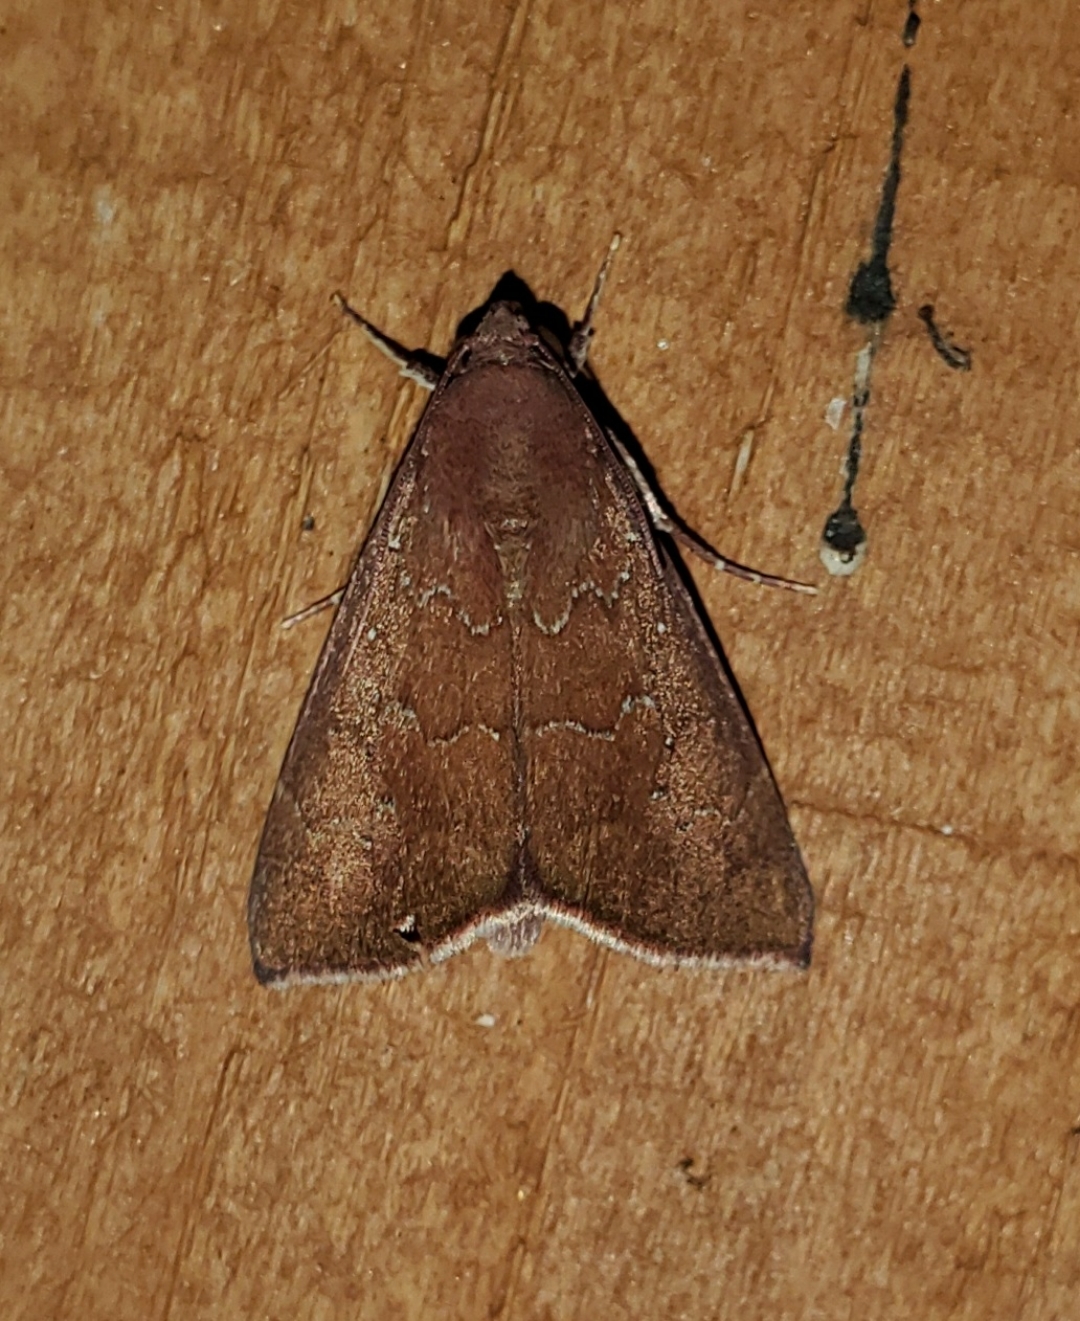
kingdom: Animalia
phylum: Arthropoda
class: Insecta
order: Lepidoptera
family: Erebidae
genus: Anomis
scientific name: Anomis illita
